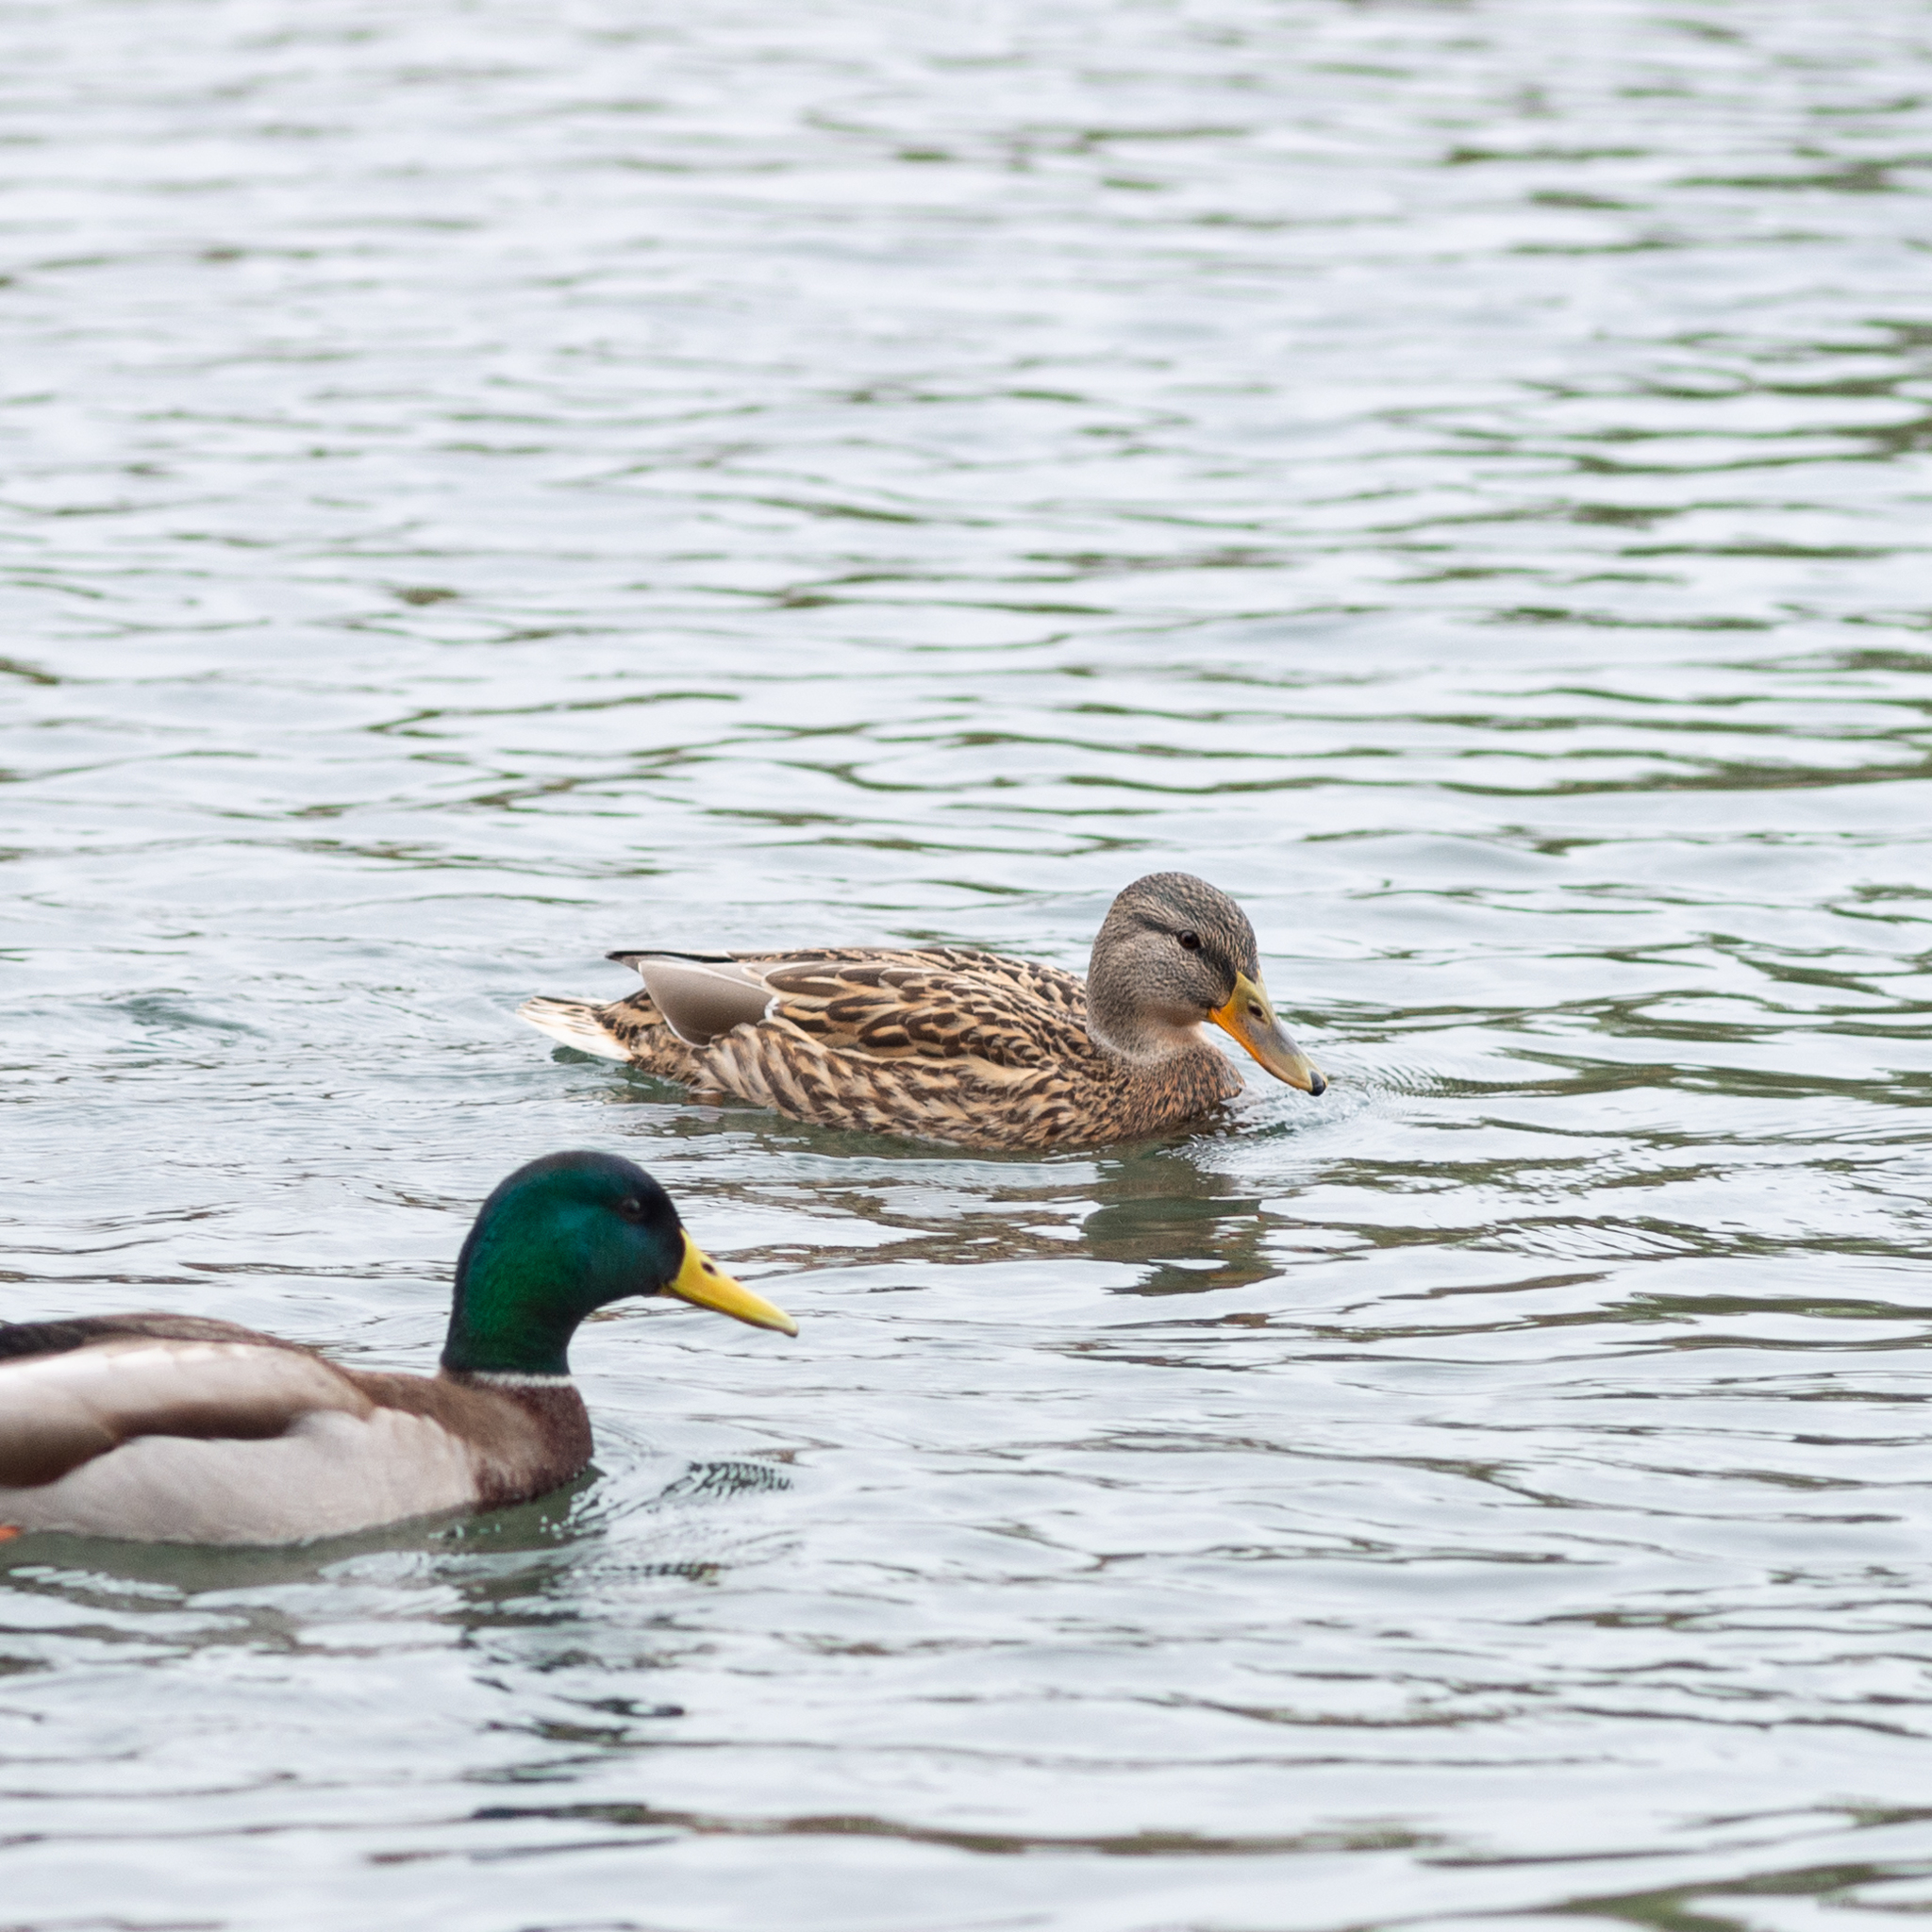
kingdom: Animalia
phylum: Chordata
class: Aves
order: Anseriformes
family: Anatidae
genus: Anas
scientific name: Anas platyrhynchos
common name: Mallard
